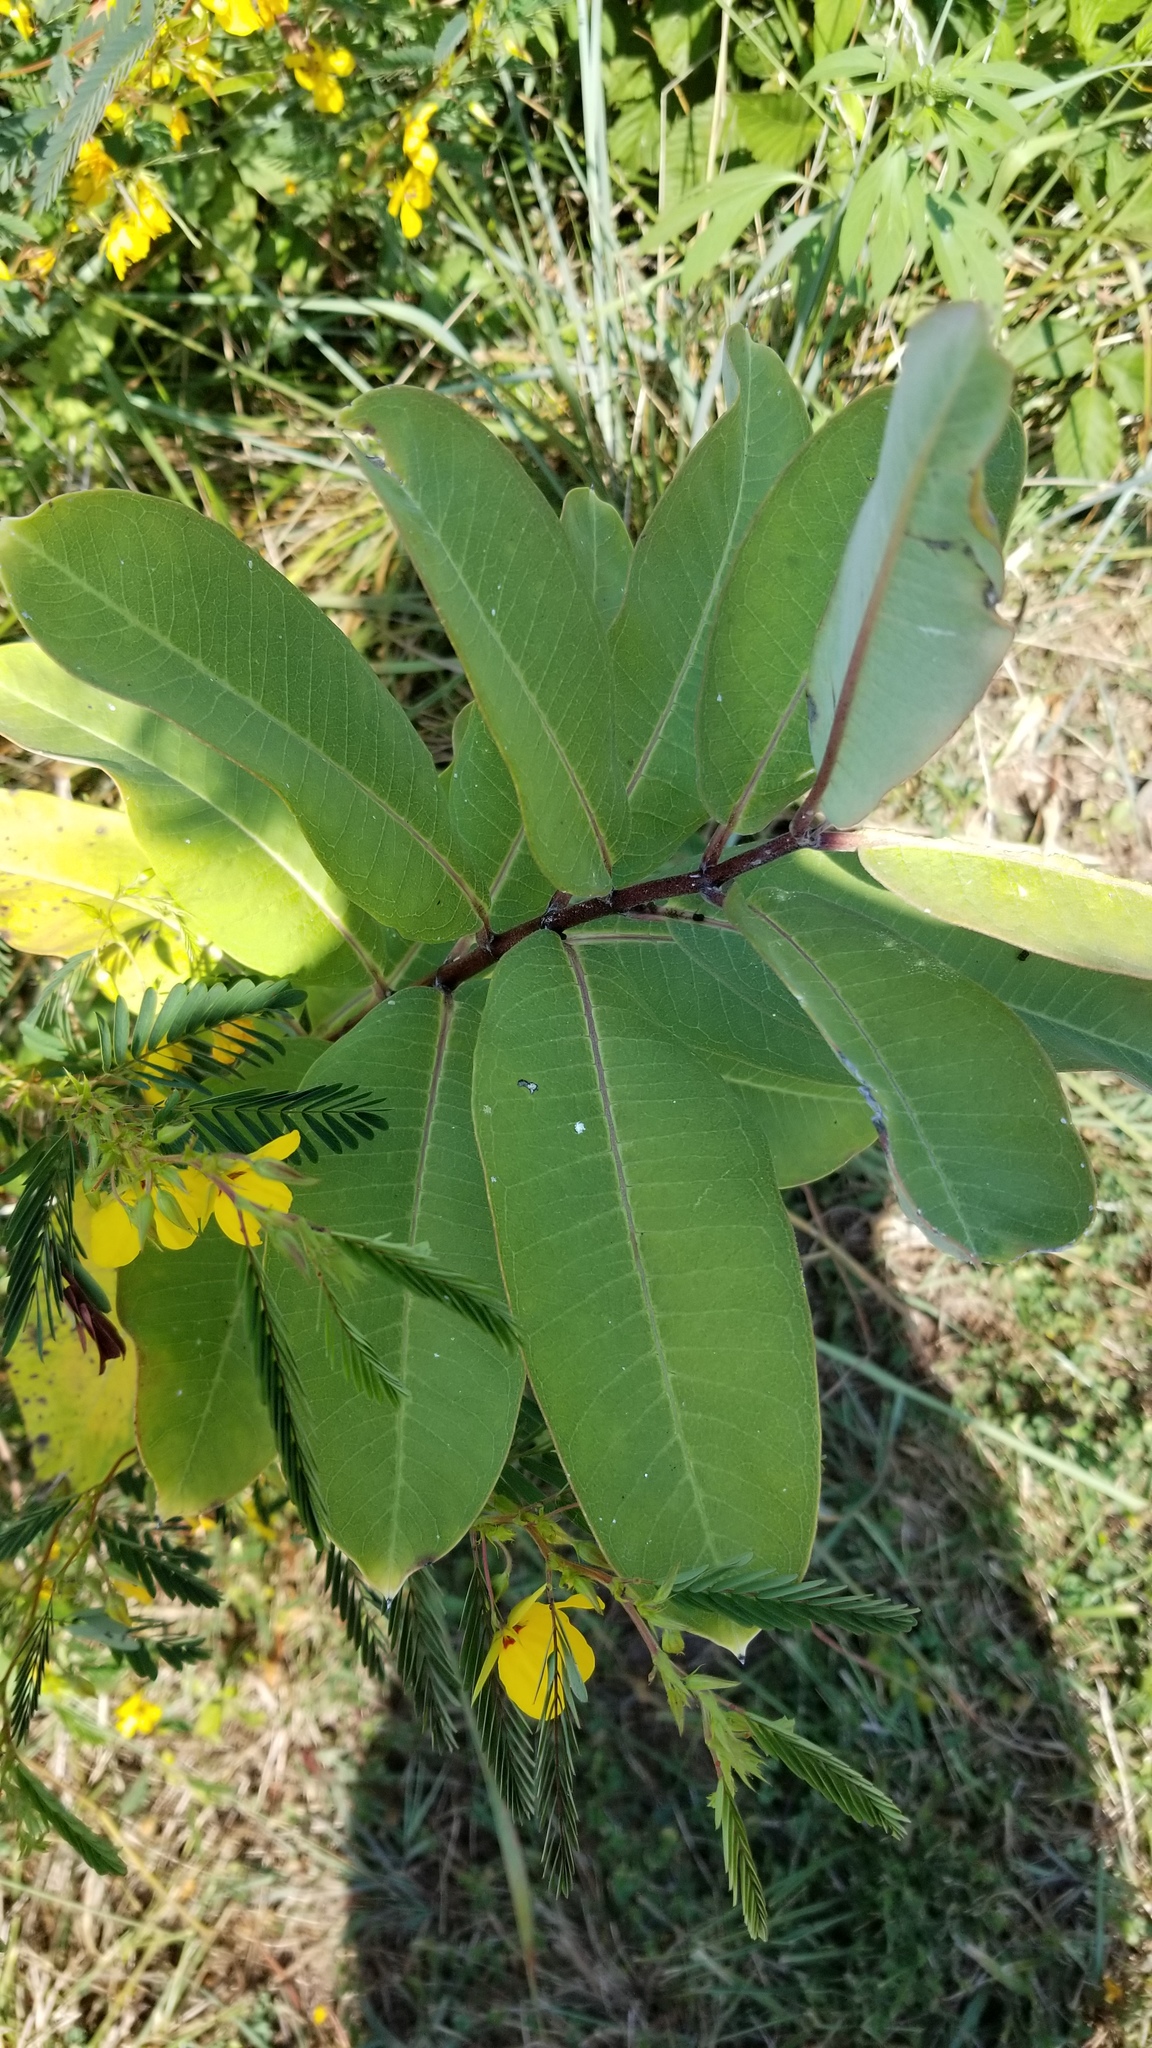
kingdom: Plantae
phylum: Tracheophyta
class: Magnoliopsida
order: Gentianales
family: Apocynaceae
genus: Asclepias
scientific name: Asclepias syriaca
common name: Common milkweed
